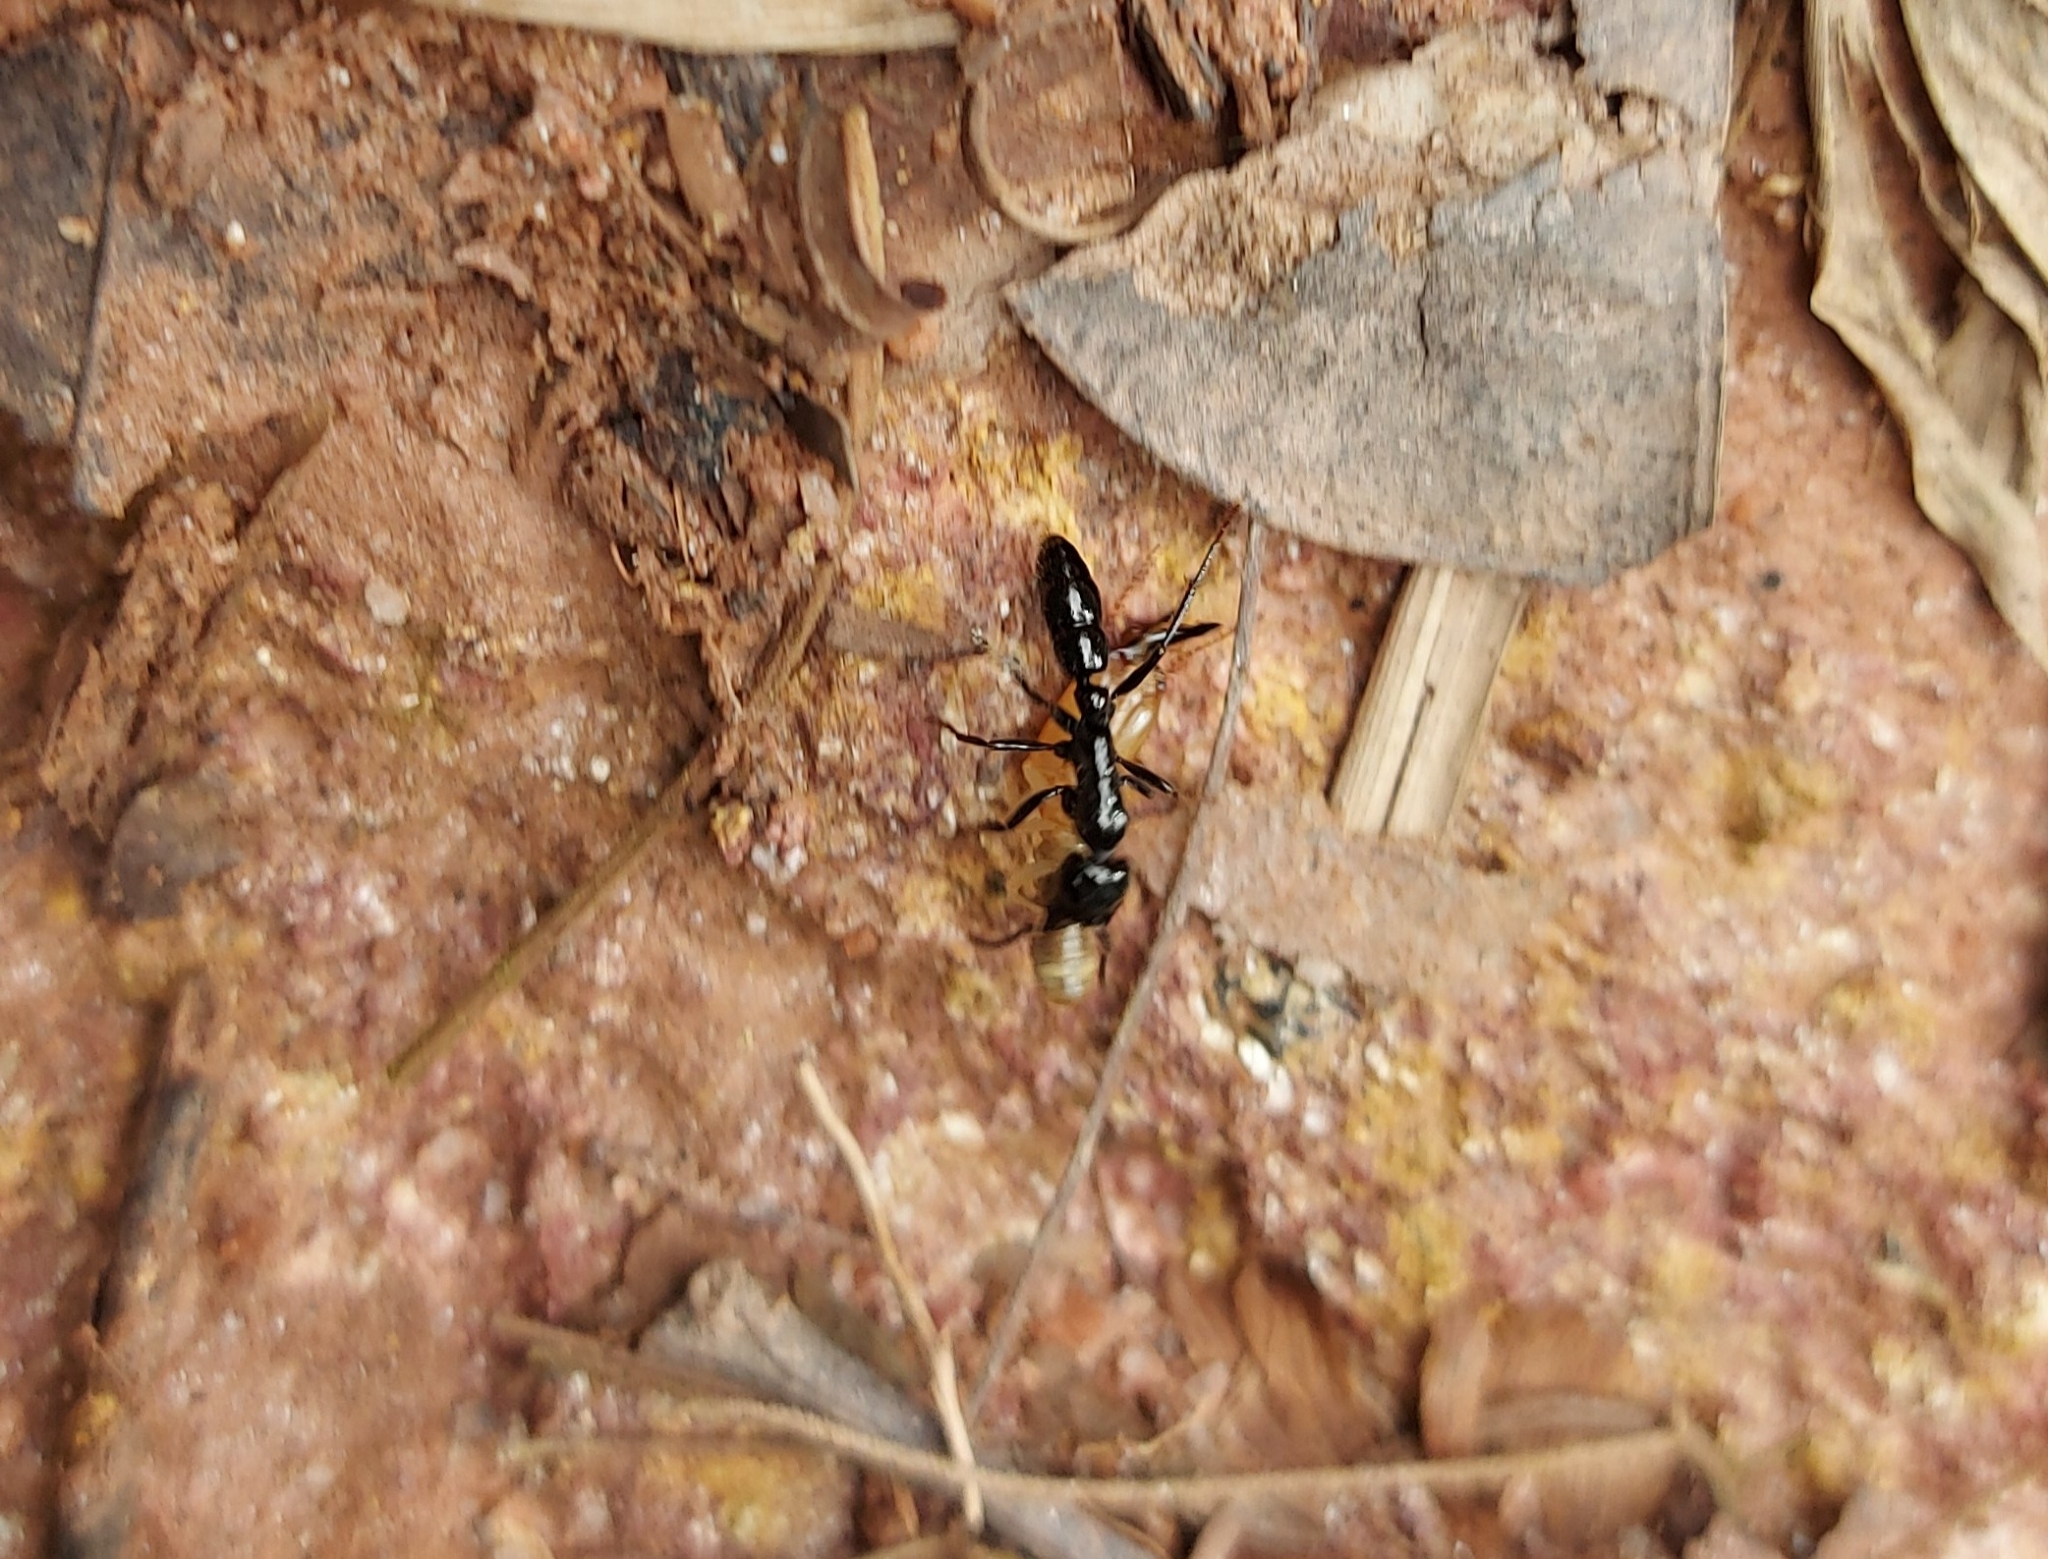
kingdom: Animalia
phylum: Arthropoda
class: Insecta
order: Hymenoptera
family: Formicidae
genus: Neoponera
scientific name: Neoponera
